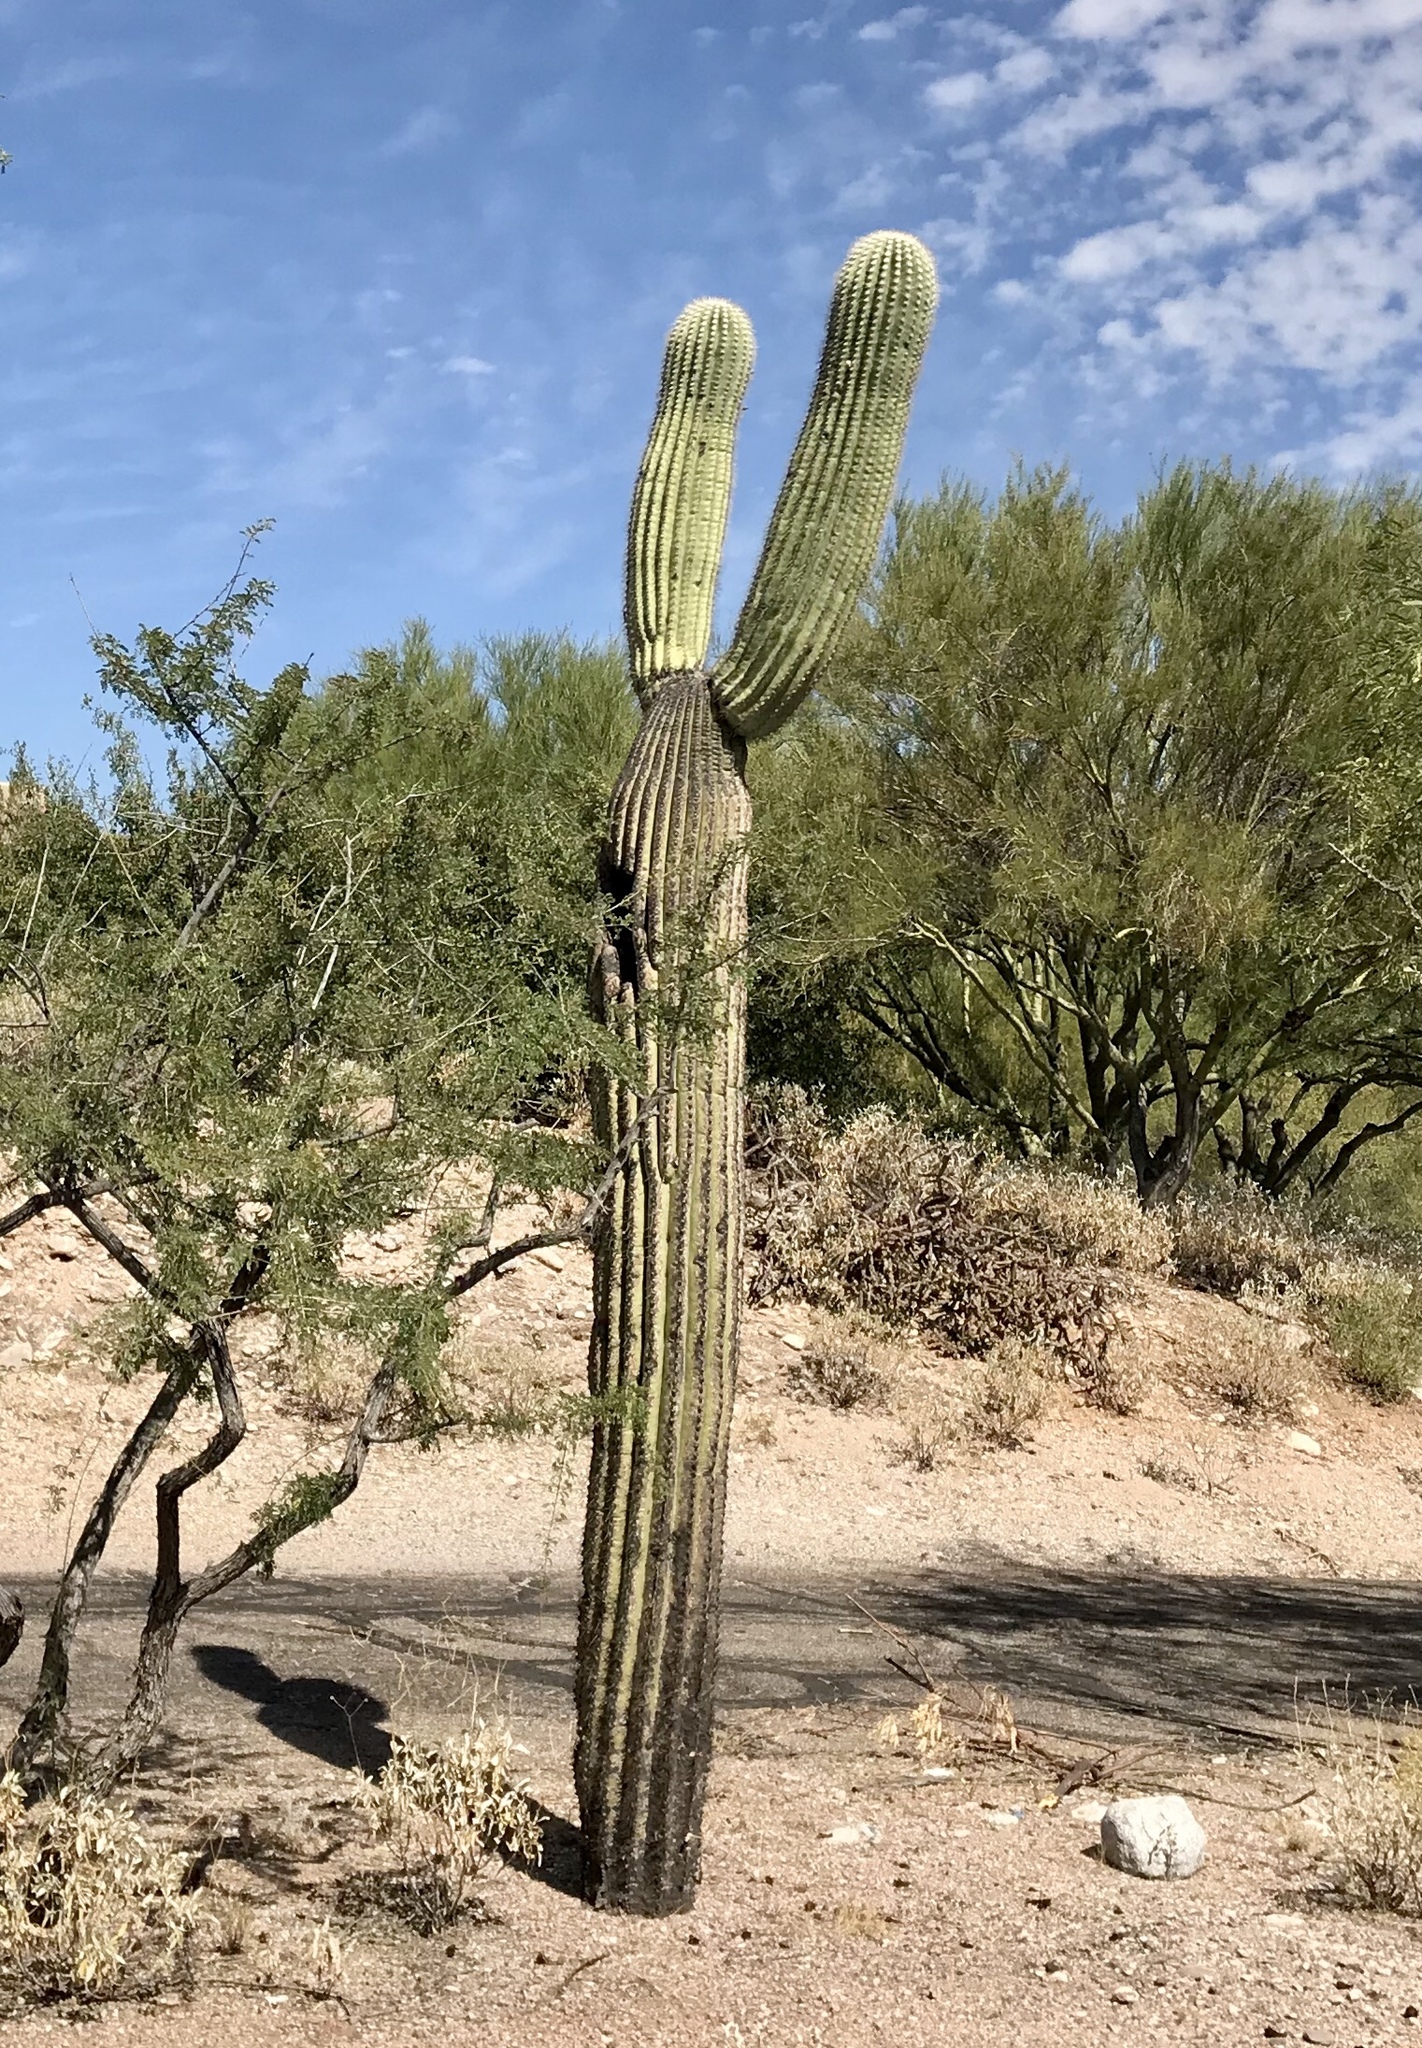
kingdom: Plantae
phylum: Tracheophyta
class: Magnoliopsida
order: Caryophyllales
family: Cactaceae
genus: Carnegiea
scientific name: Carnegiea gigantea
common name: Saguaro
